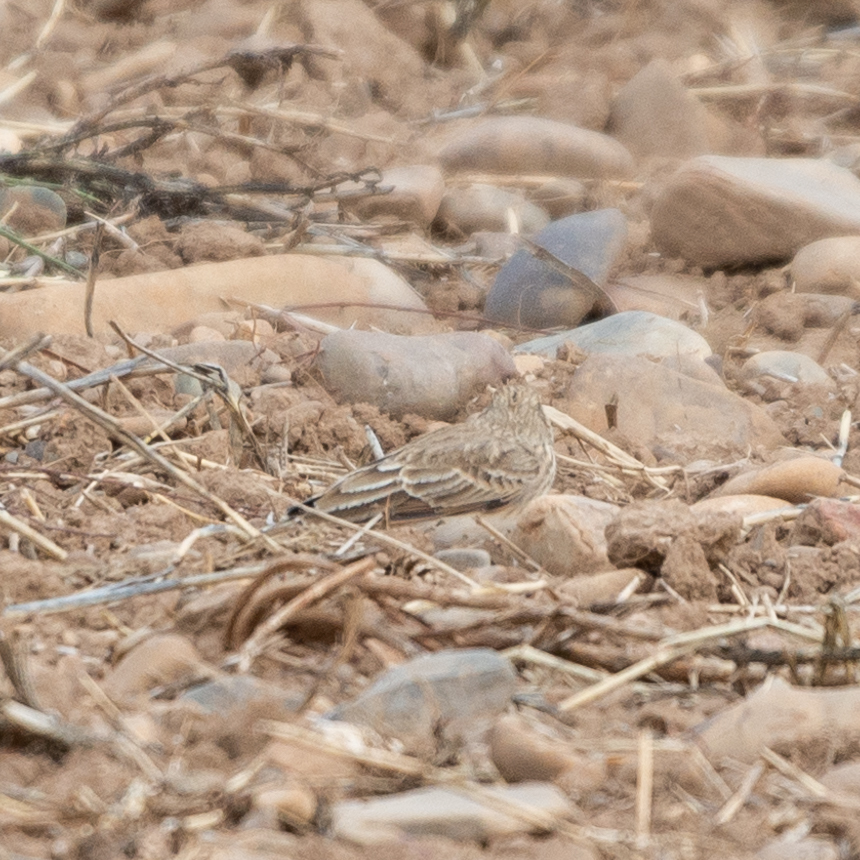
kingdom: Animalia
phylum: Chordata
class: Aves
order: Passeriformes
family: Alaudidae
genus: Galerida
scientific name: Galerida cristata
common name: Crested lark
